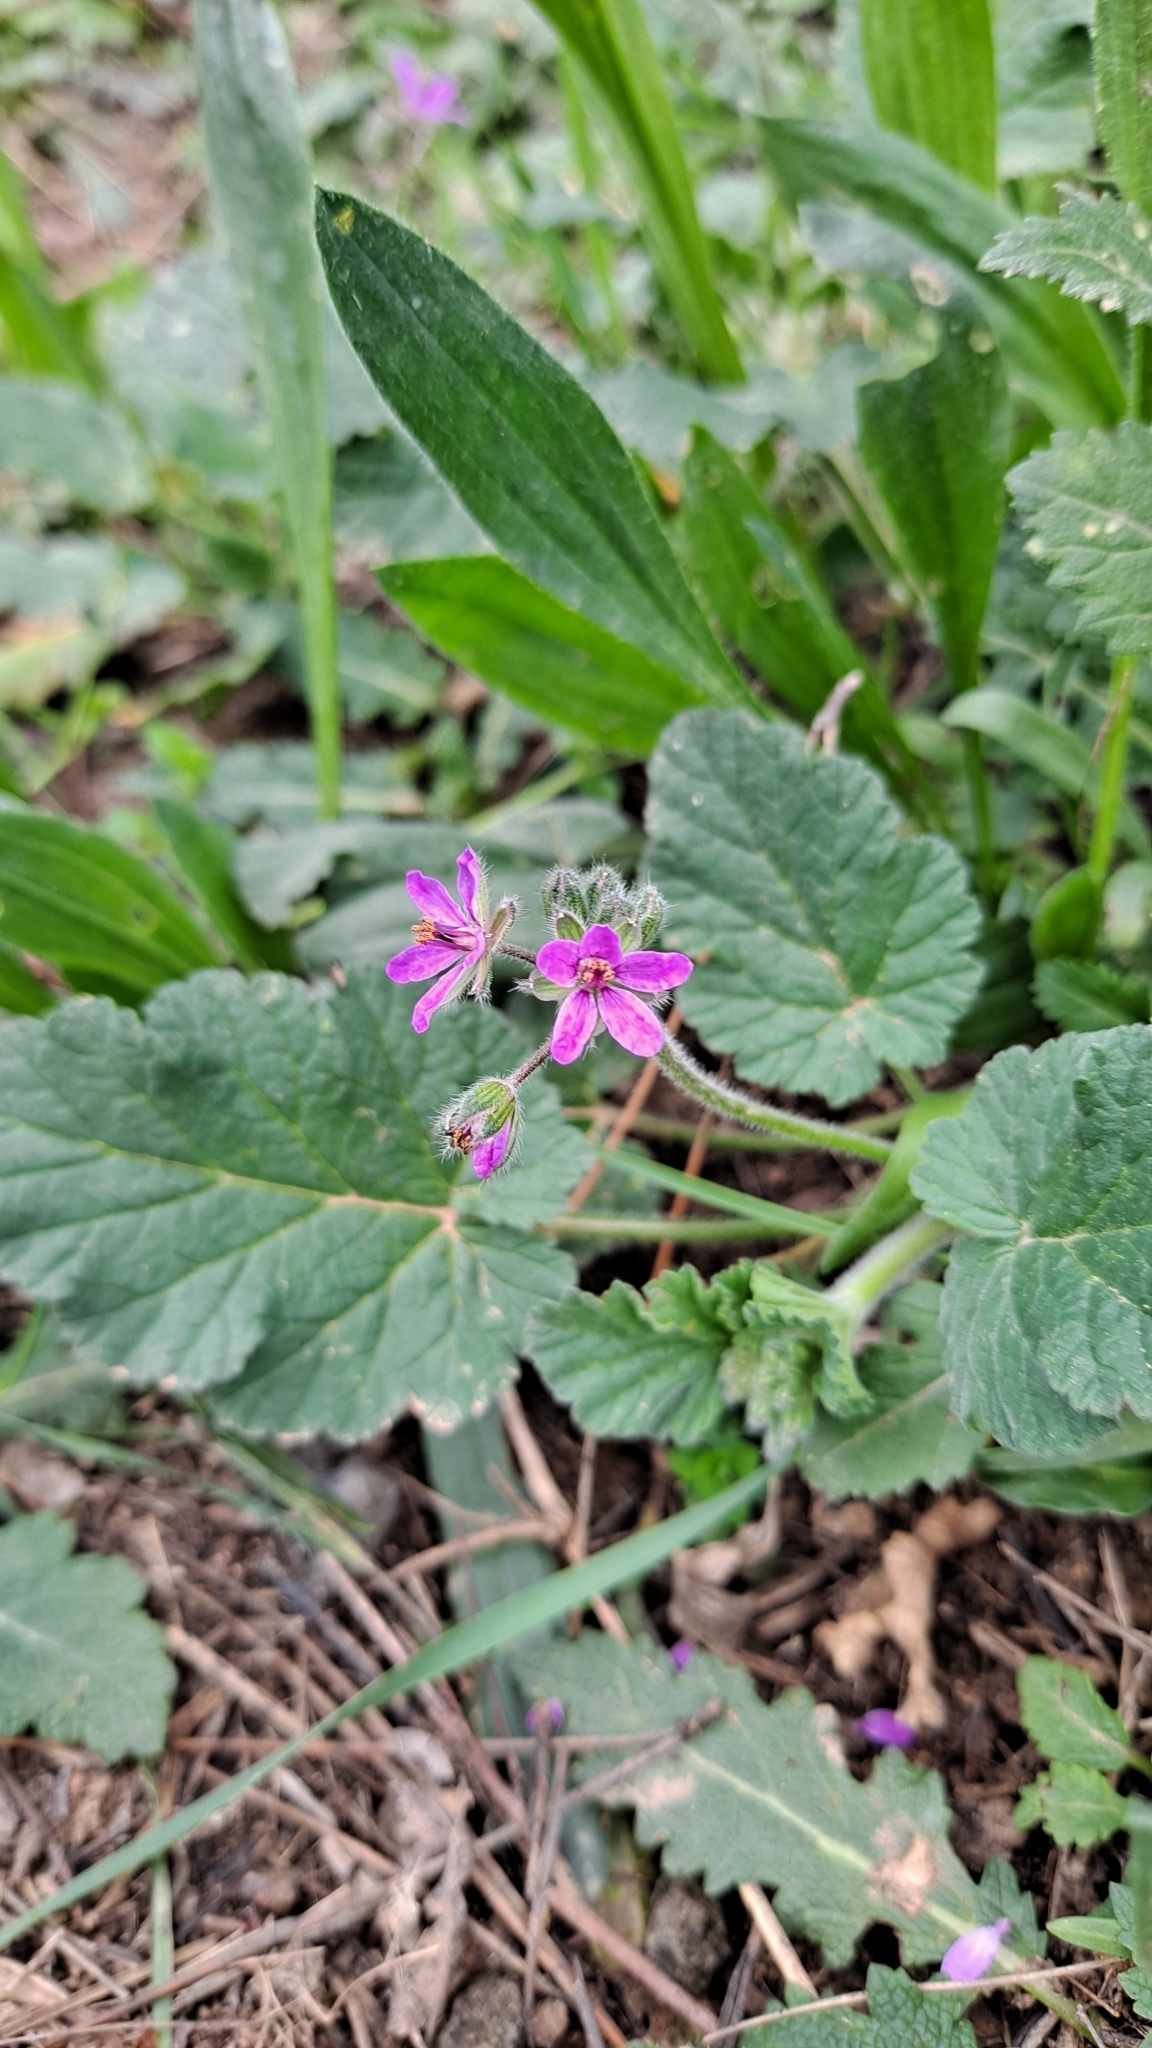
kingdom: Plantae
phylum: Tracheophyta
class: Magnoliopsida
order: Geraniales
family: Geraniaceae
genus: Erodium
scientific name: Erodium malacoides
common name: Soft stork's-bill
